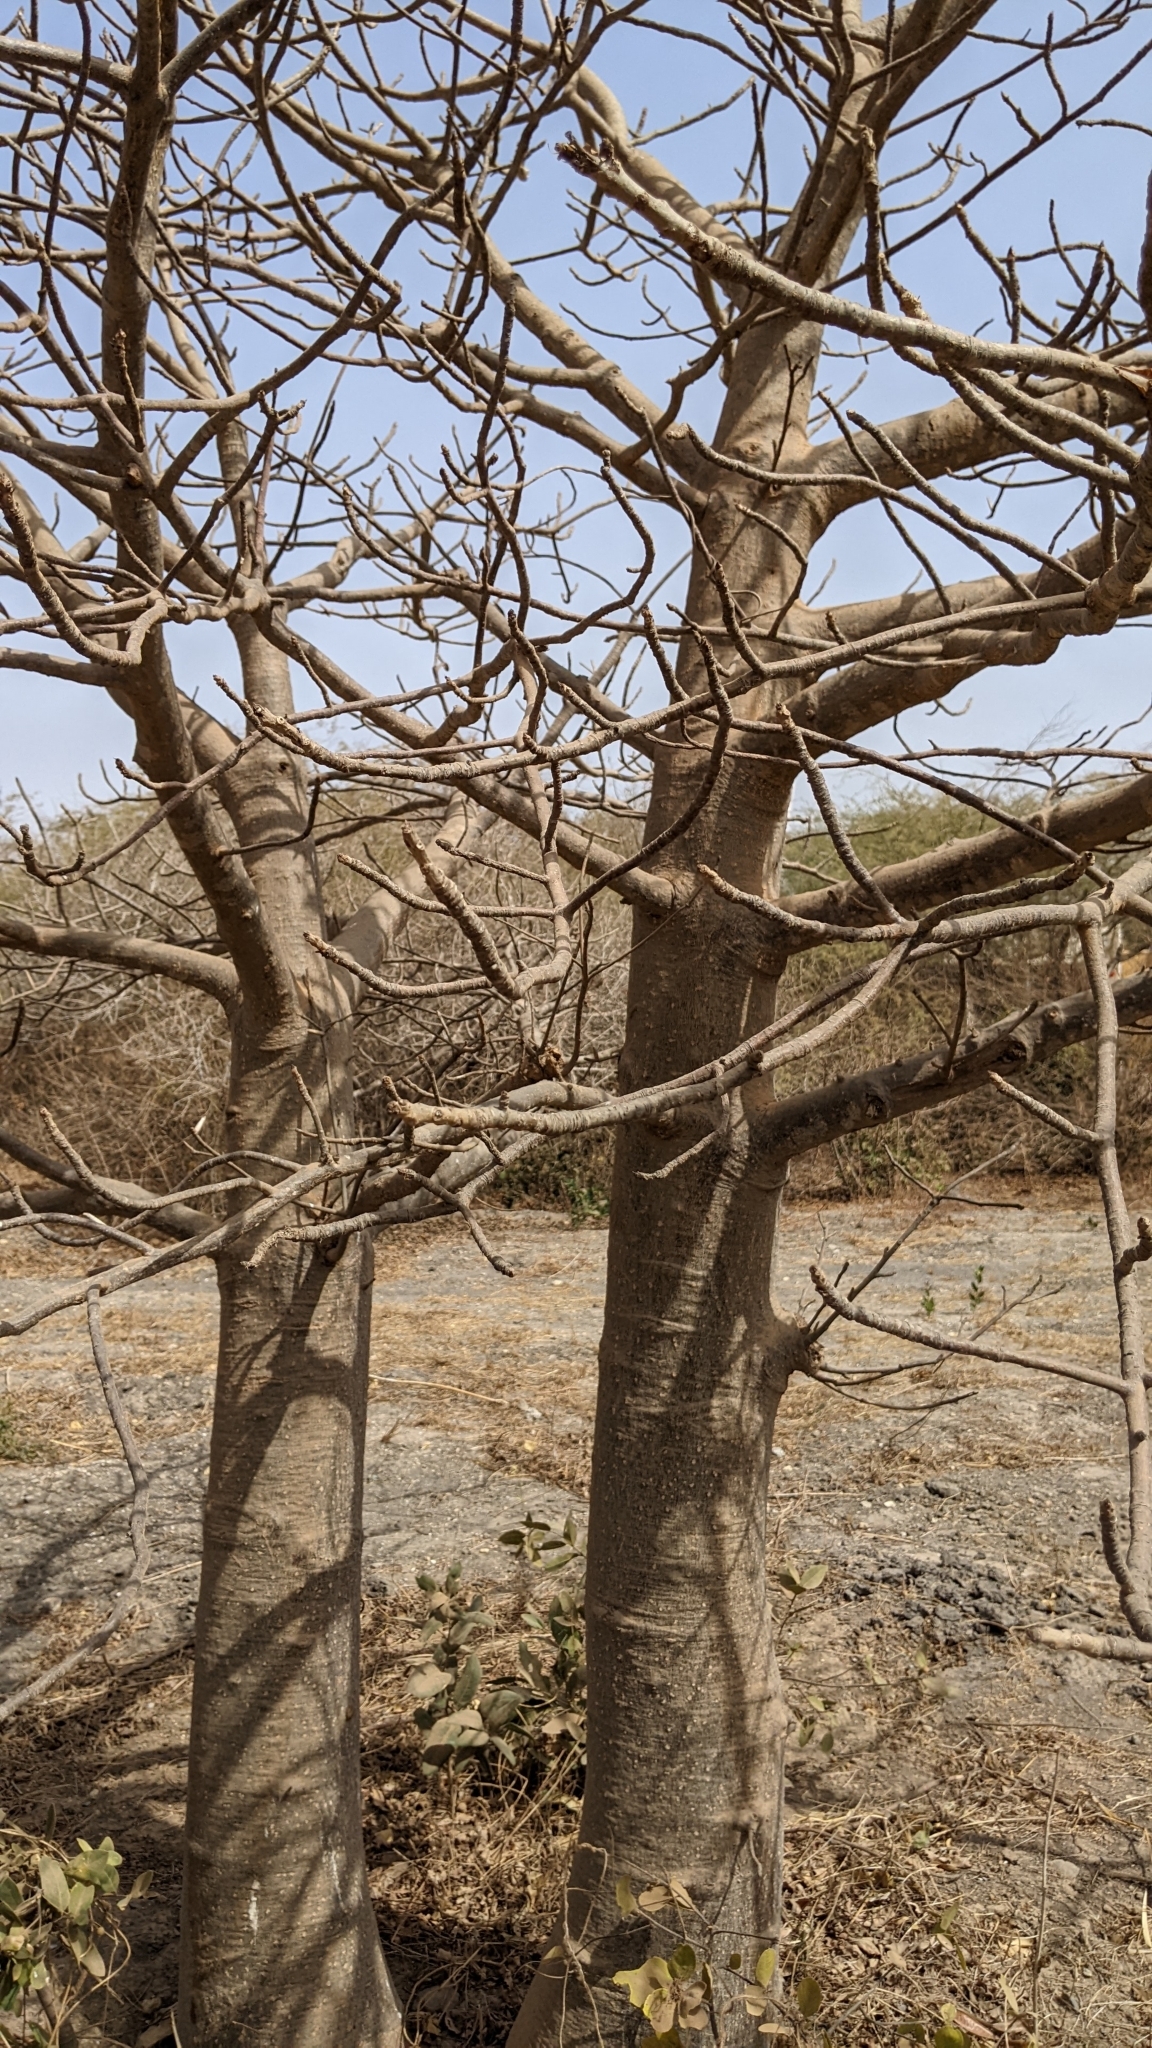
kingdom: Plantae
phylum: Tracheophyta
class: Magnoliopsida
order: Malvales
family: Malvaceae
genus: Adansonia
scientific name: Adansonia digitata
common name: Dead-rat-tree
